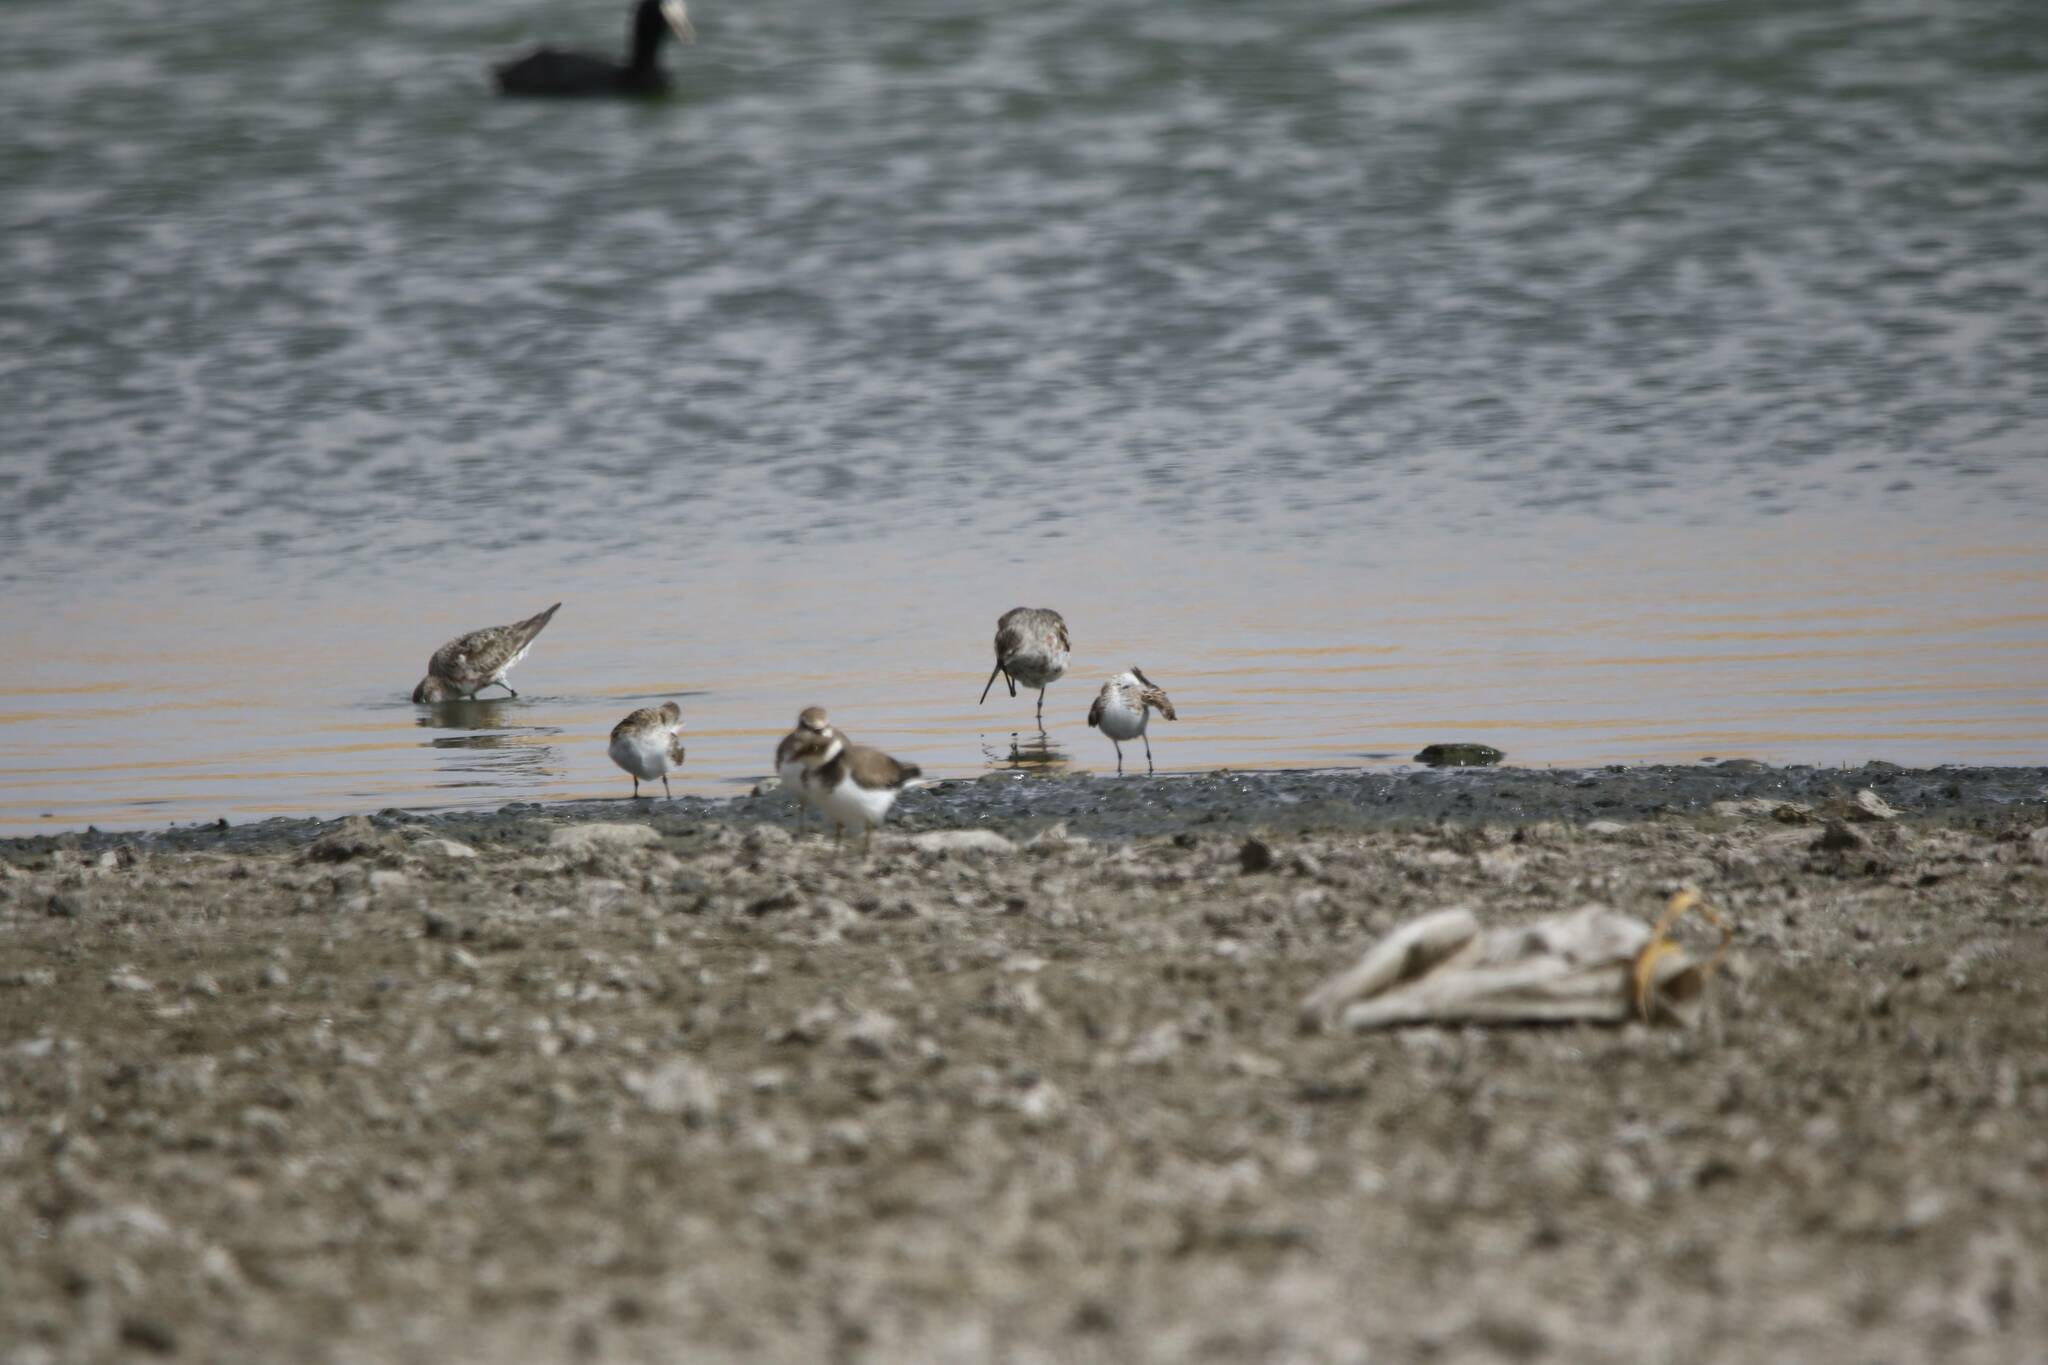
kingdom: Animalia
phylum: Chordata
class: Aves
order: Charadriiformes
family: Scolopacidae
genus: Calidris
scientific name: Calidris minuta
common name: Little stint
